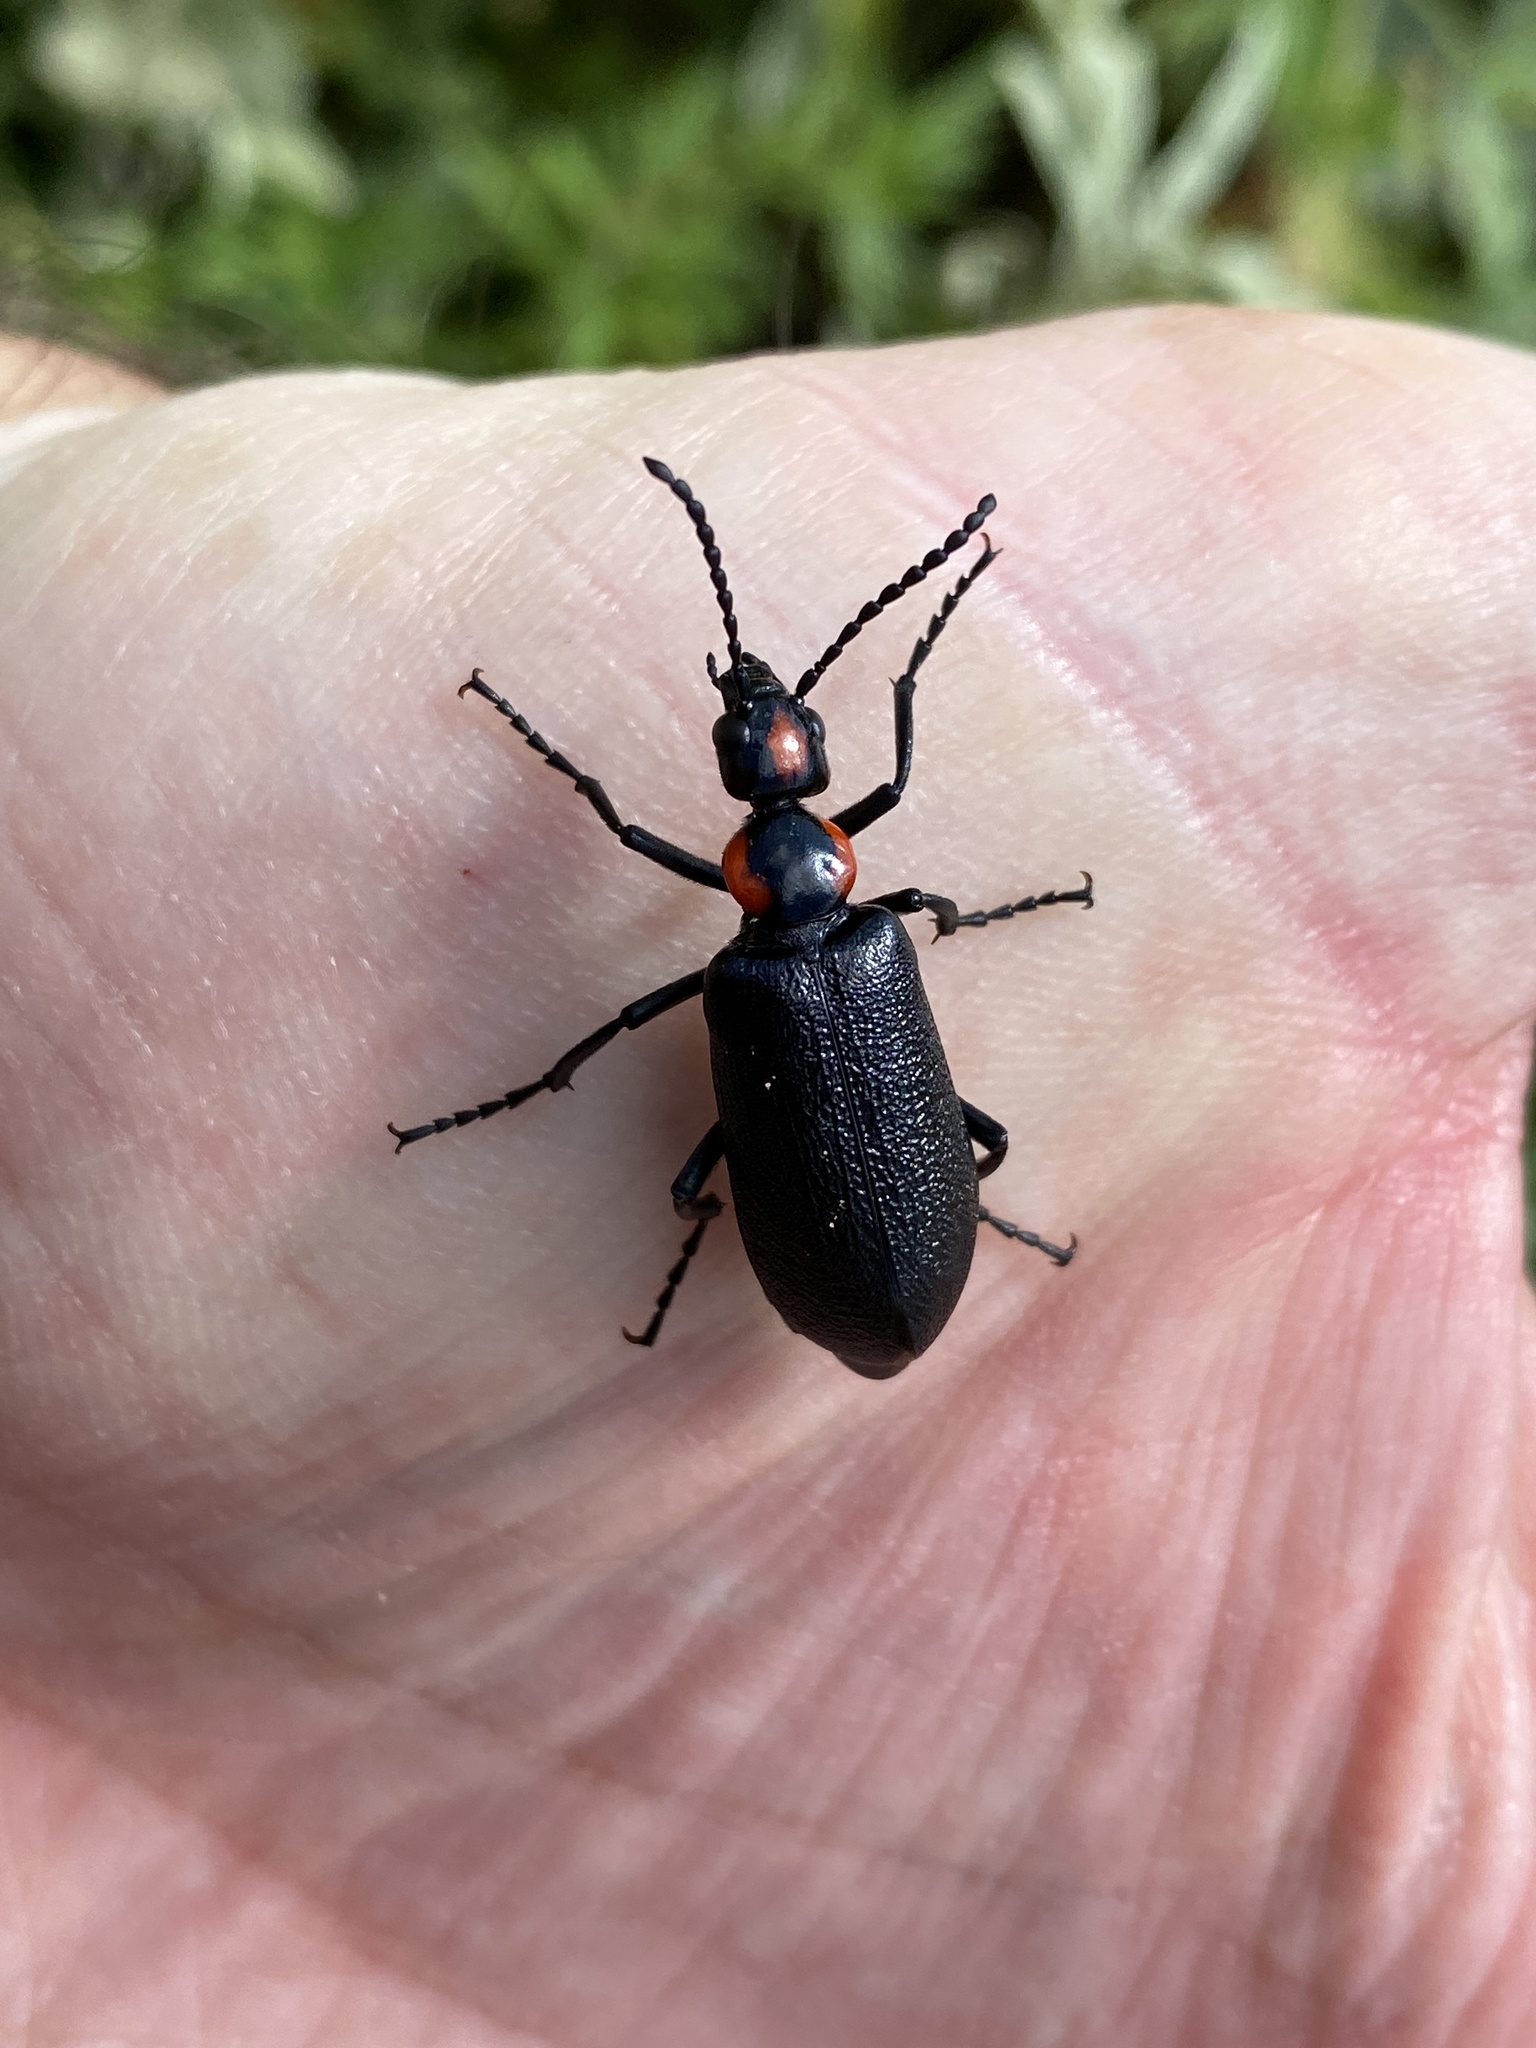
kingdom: Animalia
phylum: Arthropoda
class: Insecta
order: Coleoptera
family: Meloidae
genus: Lytta
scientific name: Lytta cribrata
